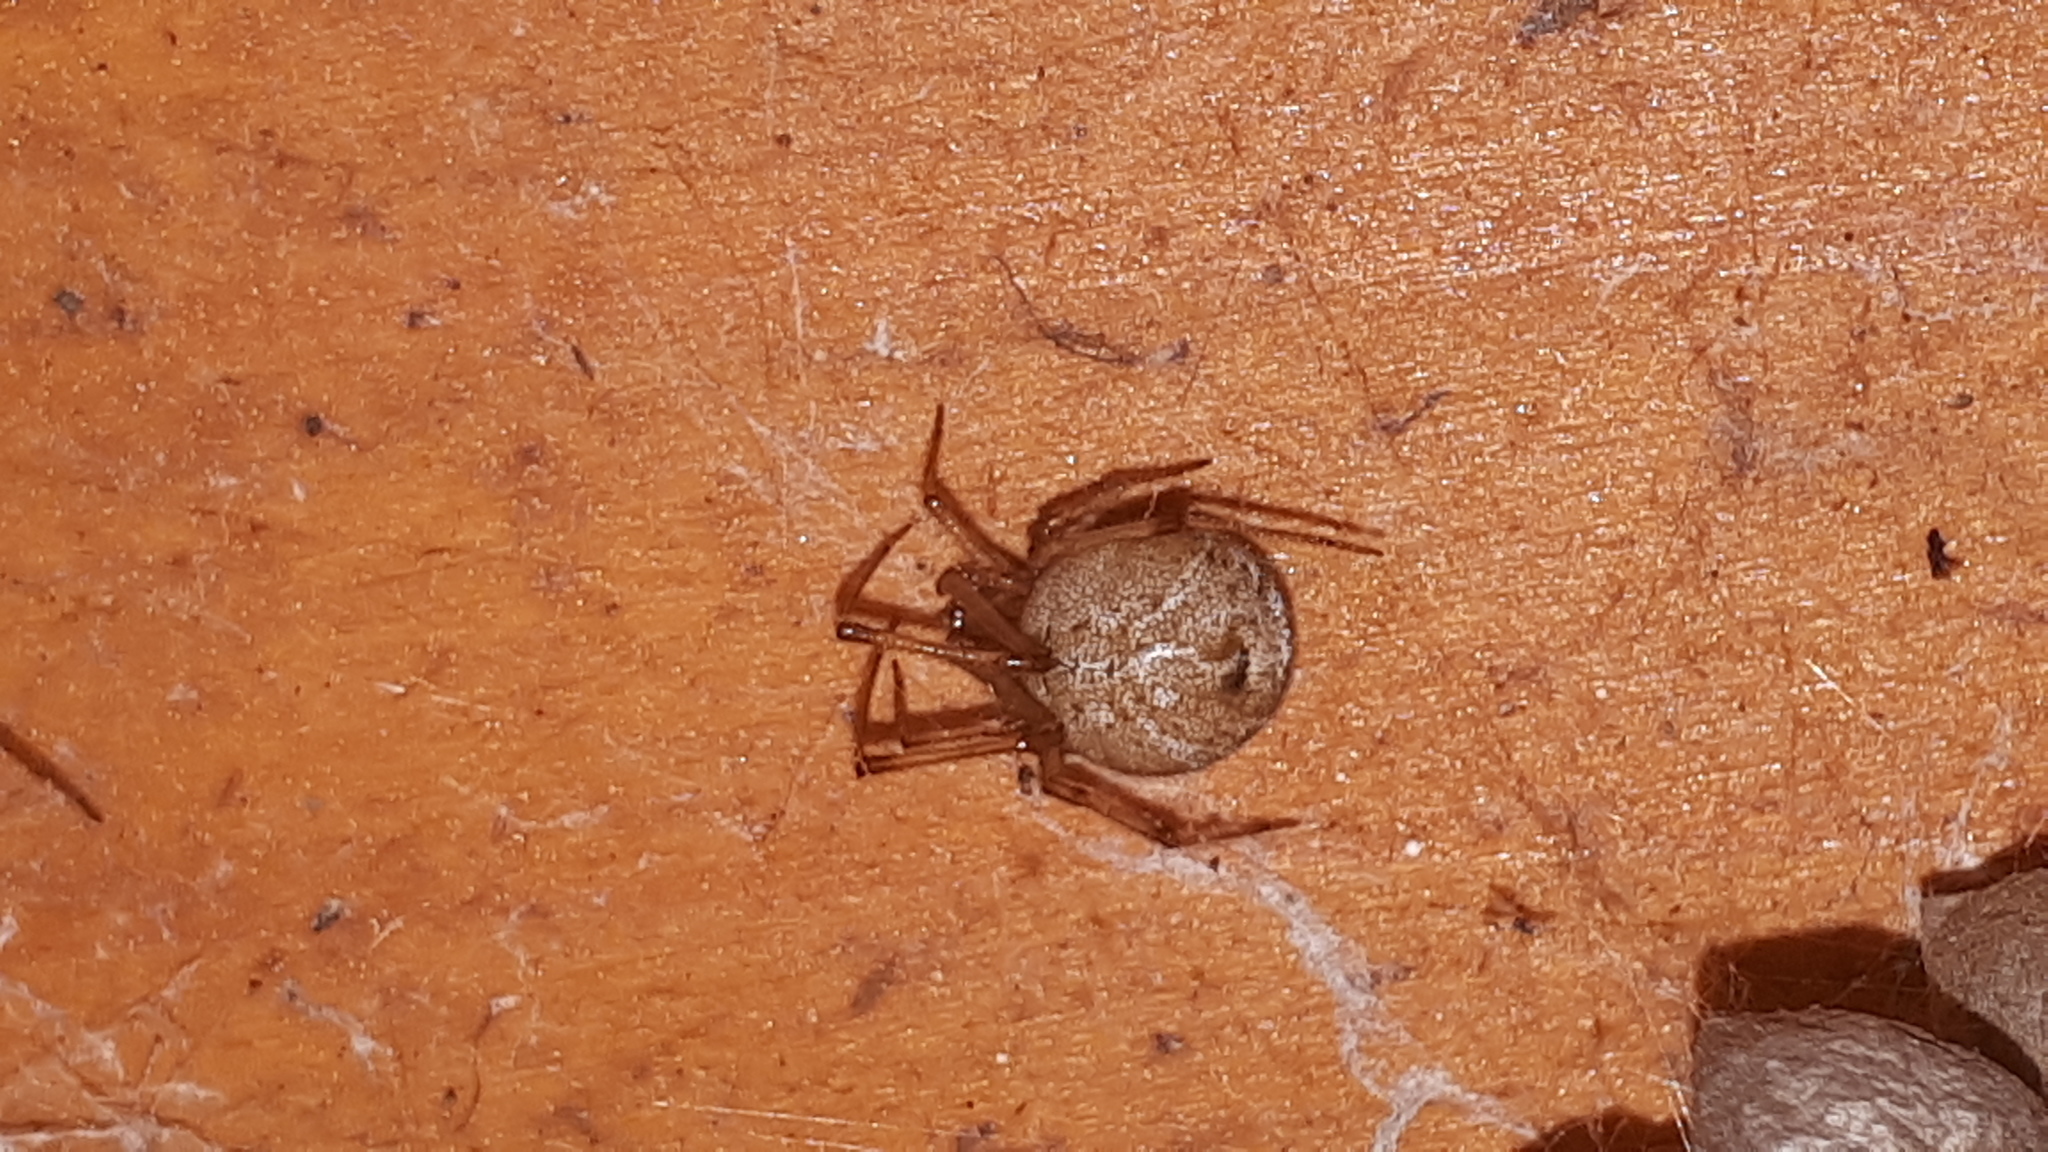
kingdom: Animalia
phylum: Arthropoda
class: Arachnida
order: Araneae
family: Theridiidae
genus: Parasteatoda
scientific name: Parasteatoda tepidariorum
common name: Common house spider
